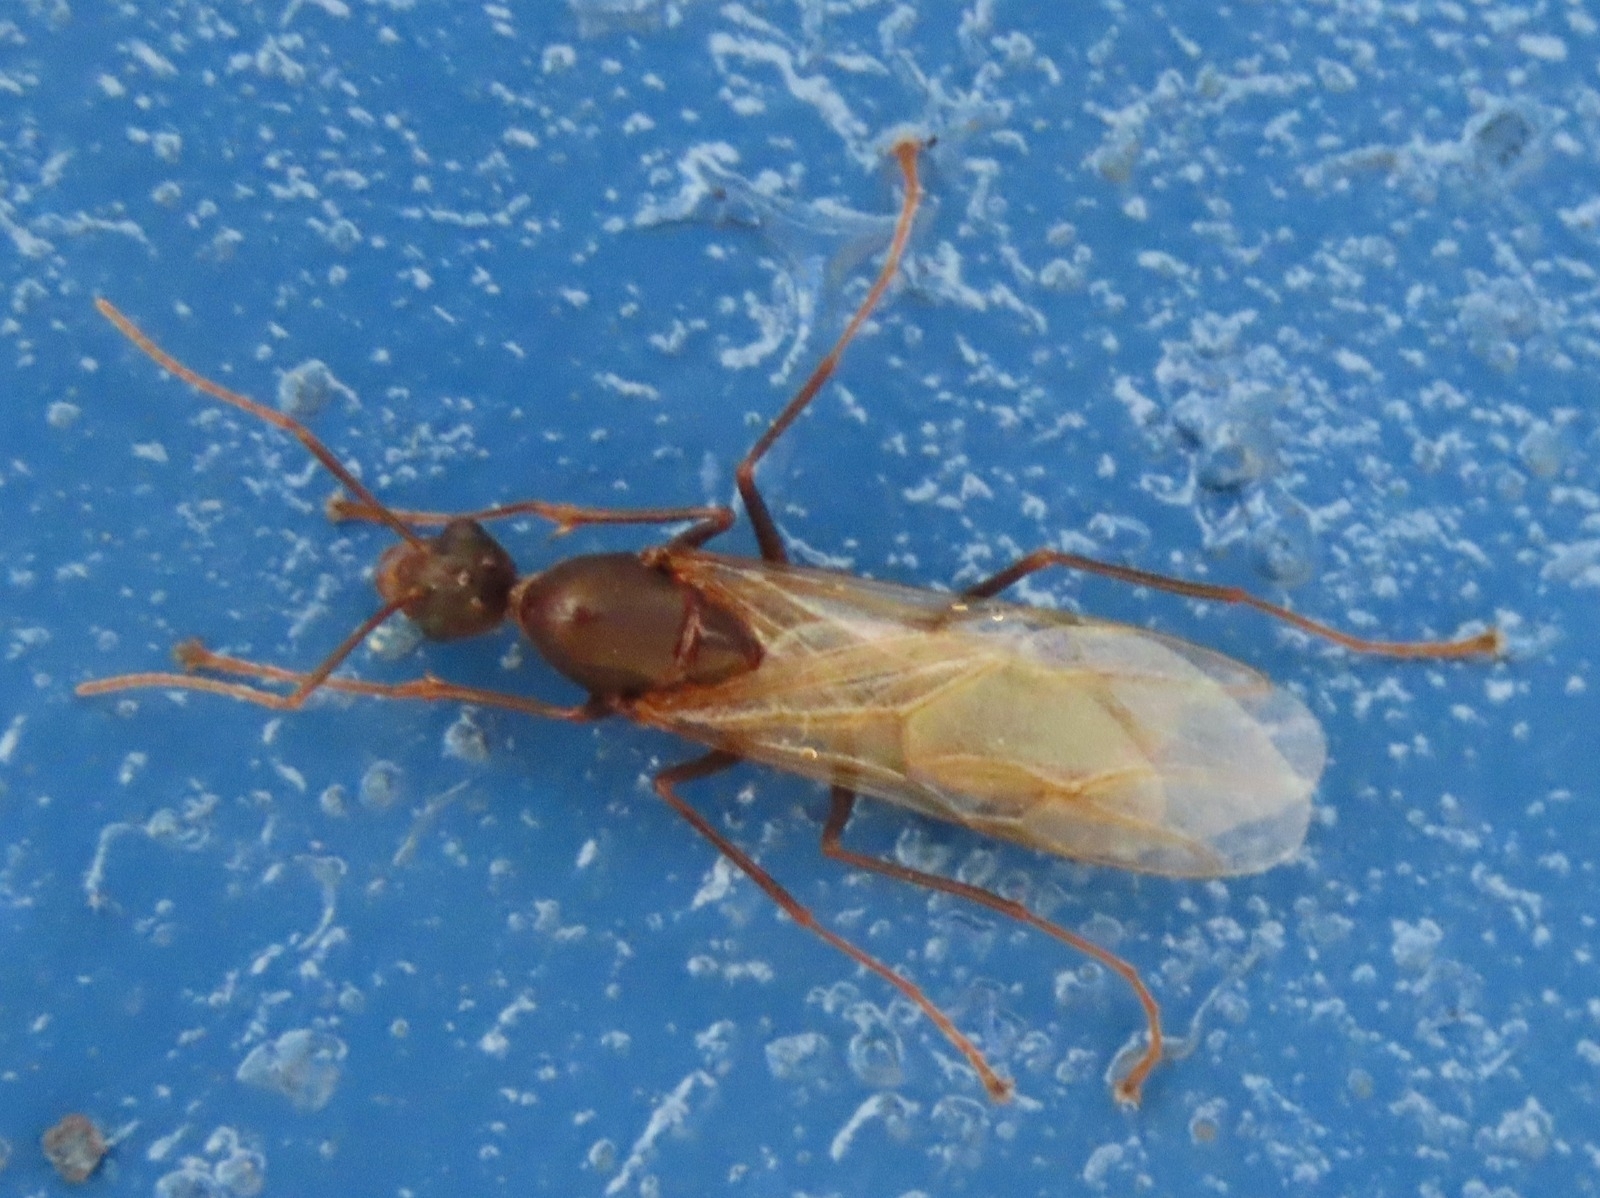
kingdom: Animalia
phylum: Arthropoda
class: Insecta
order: Hymenoptera
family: Formicidae
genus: Camponotus
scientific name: Camponotus
